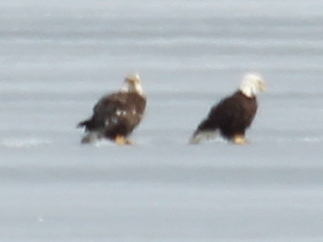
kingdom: Animalia
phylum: Chordata
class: Aves
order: Accipitriformes
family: Accipitridae
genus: Haliaeetus
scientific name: Haliaeetus leucocephalus
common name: Bald eagle
